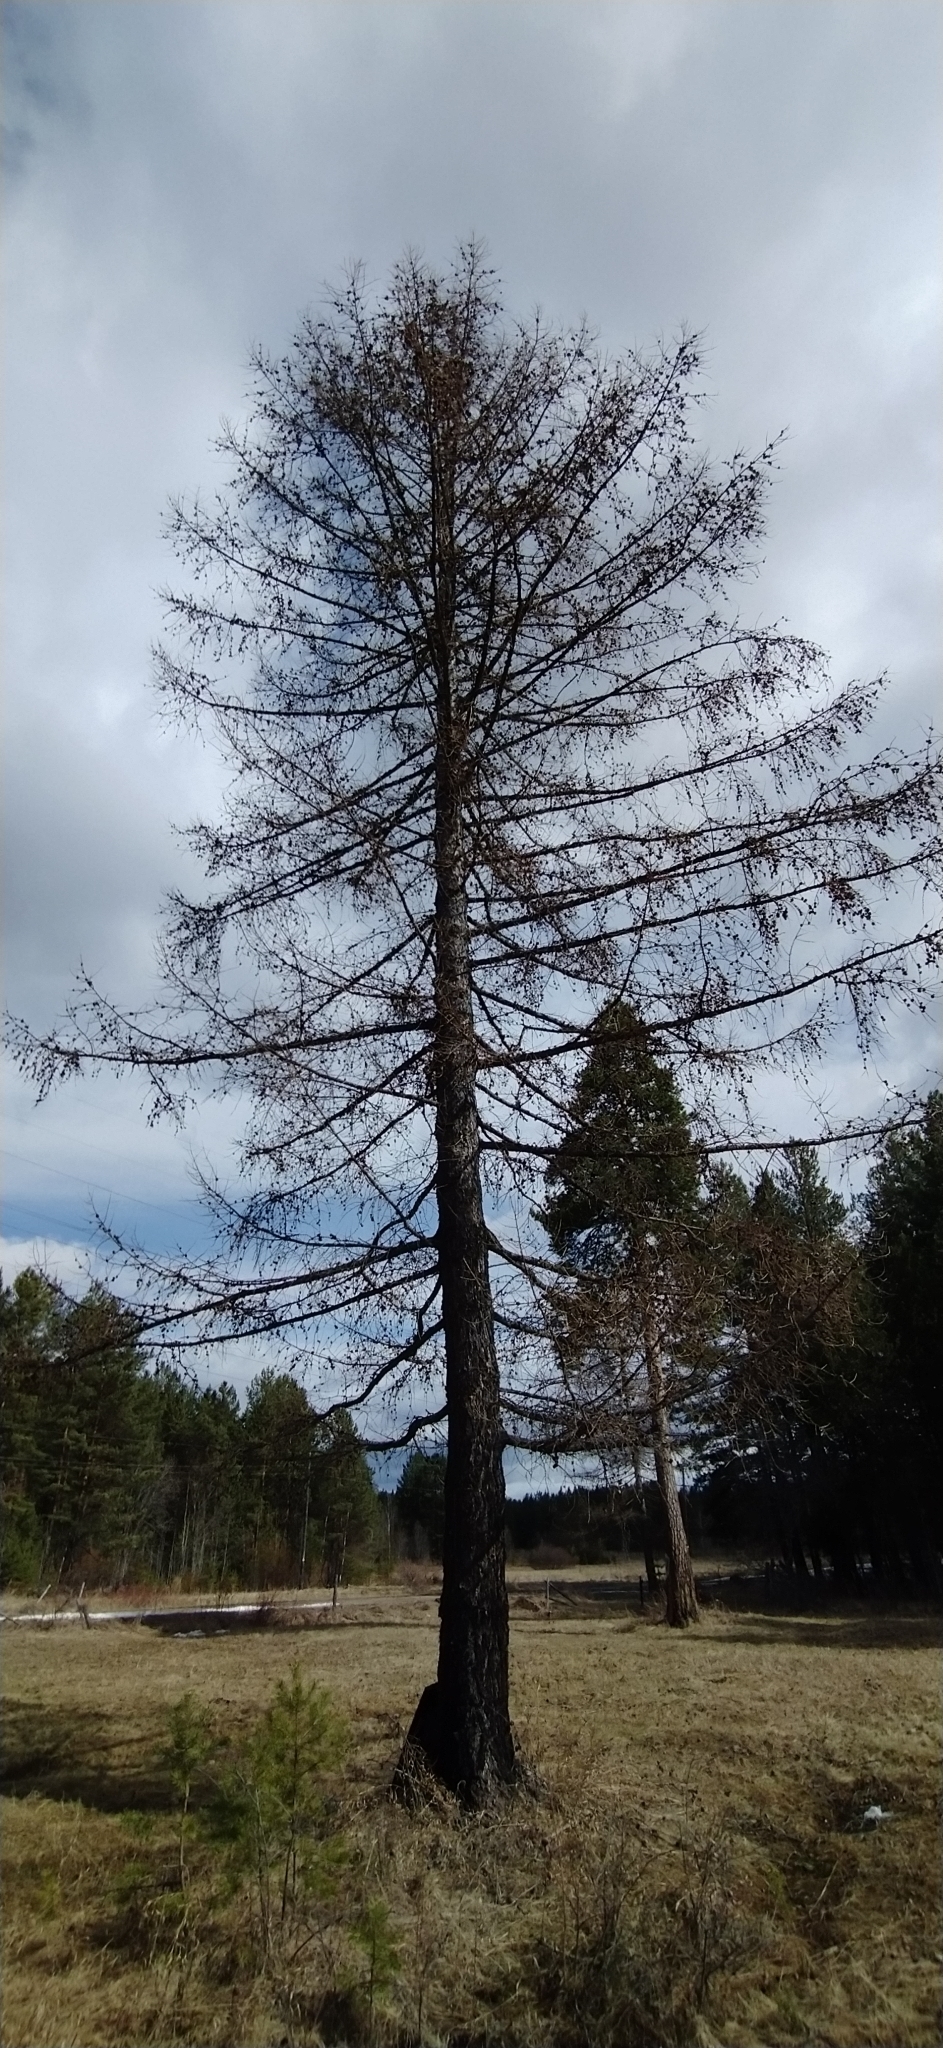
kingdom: Plantae
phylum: Tracheophyta
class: Pinopsida
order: Pinales
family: Pinaceae
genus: Larix
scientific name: Larix sibirica
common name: Siberian larch
